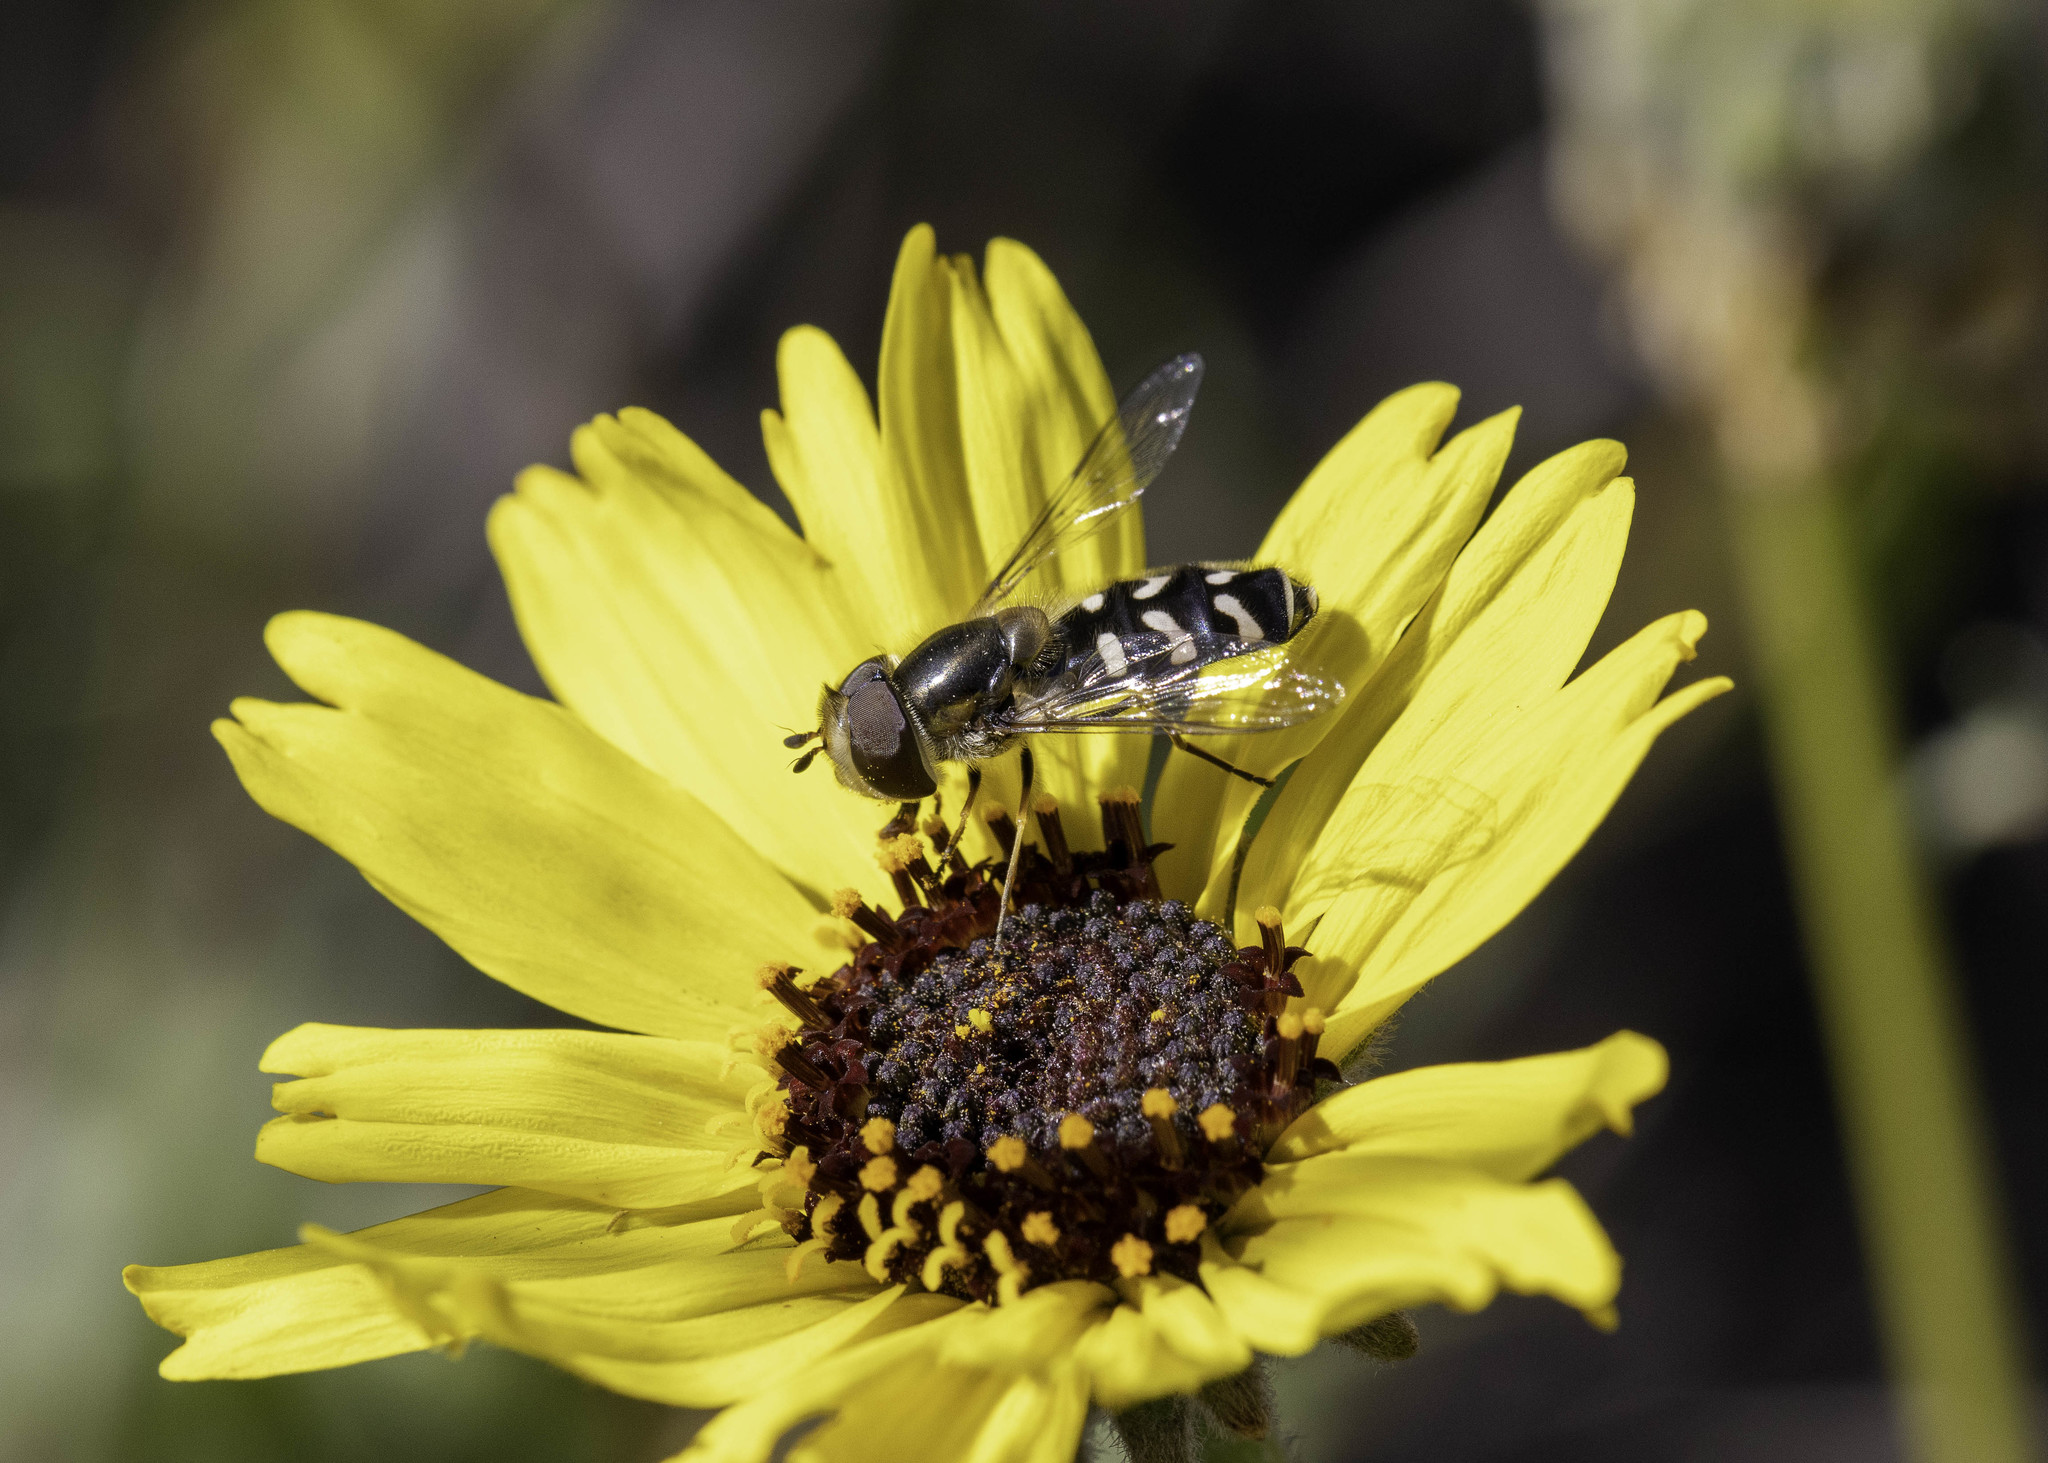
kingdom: Animalia
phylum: Arthropoda
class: Insecta
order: Diptera
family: Syrphidae
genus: Scaeva
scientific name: Scaeva affinis
